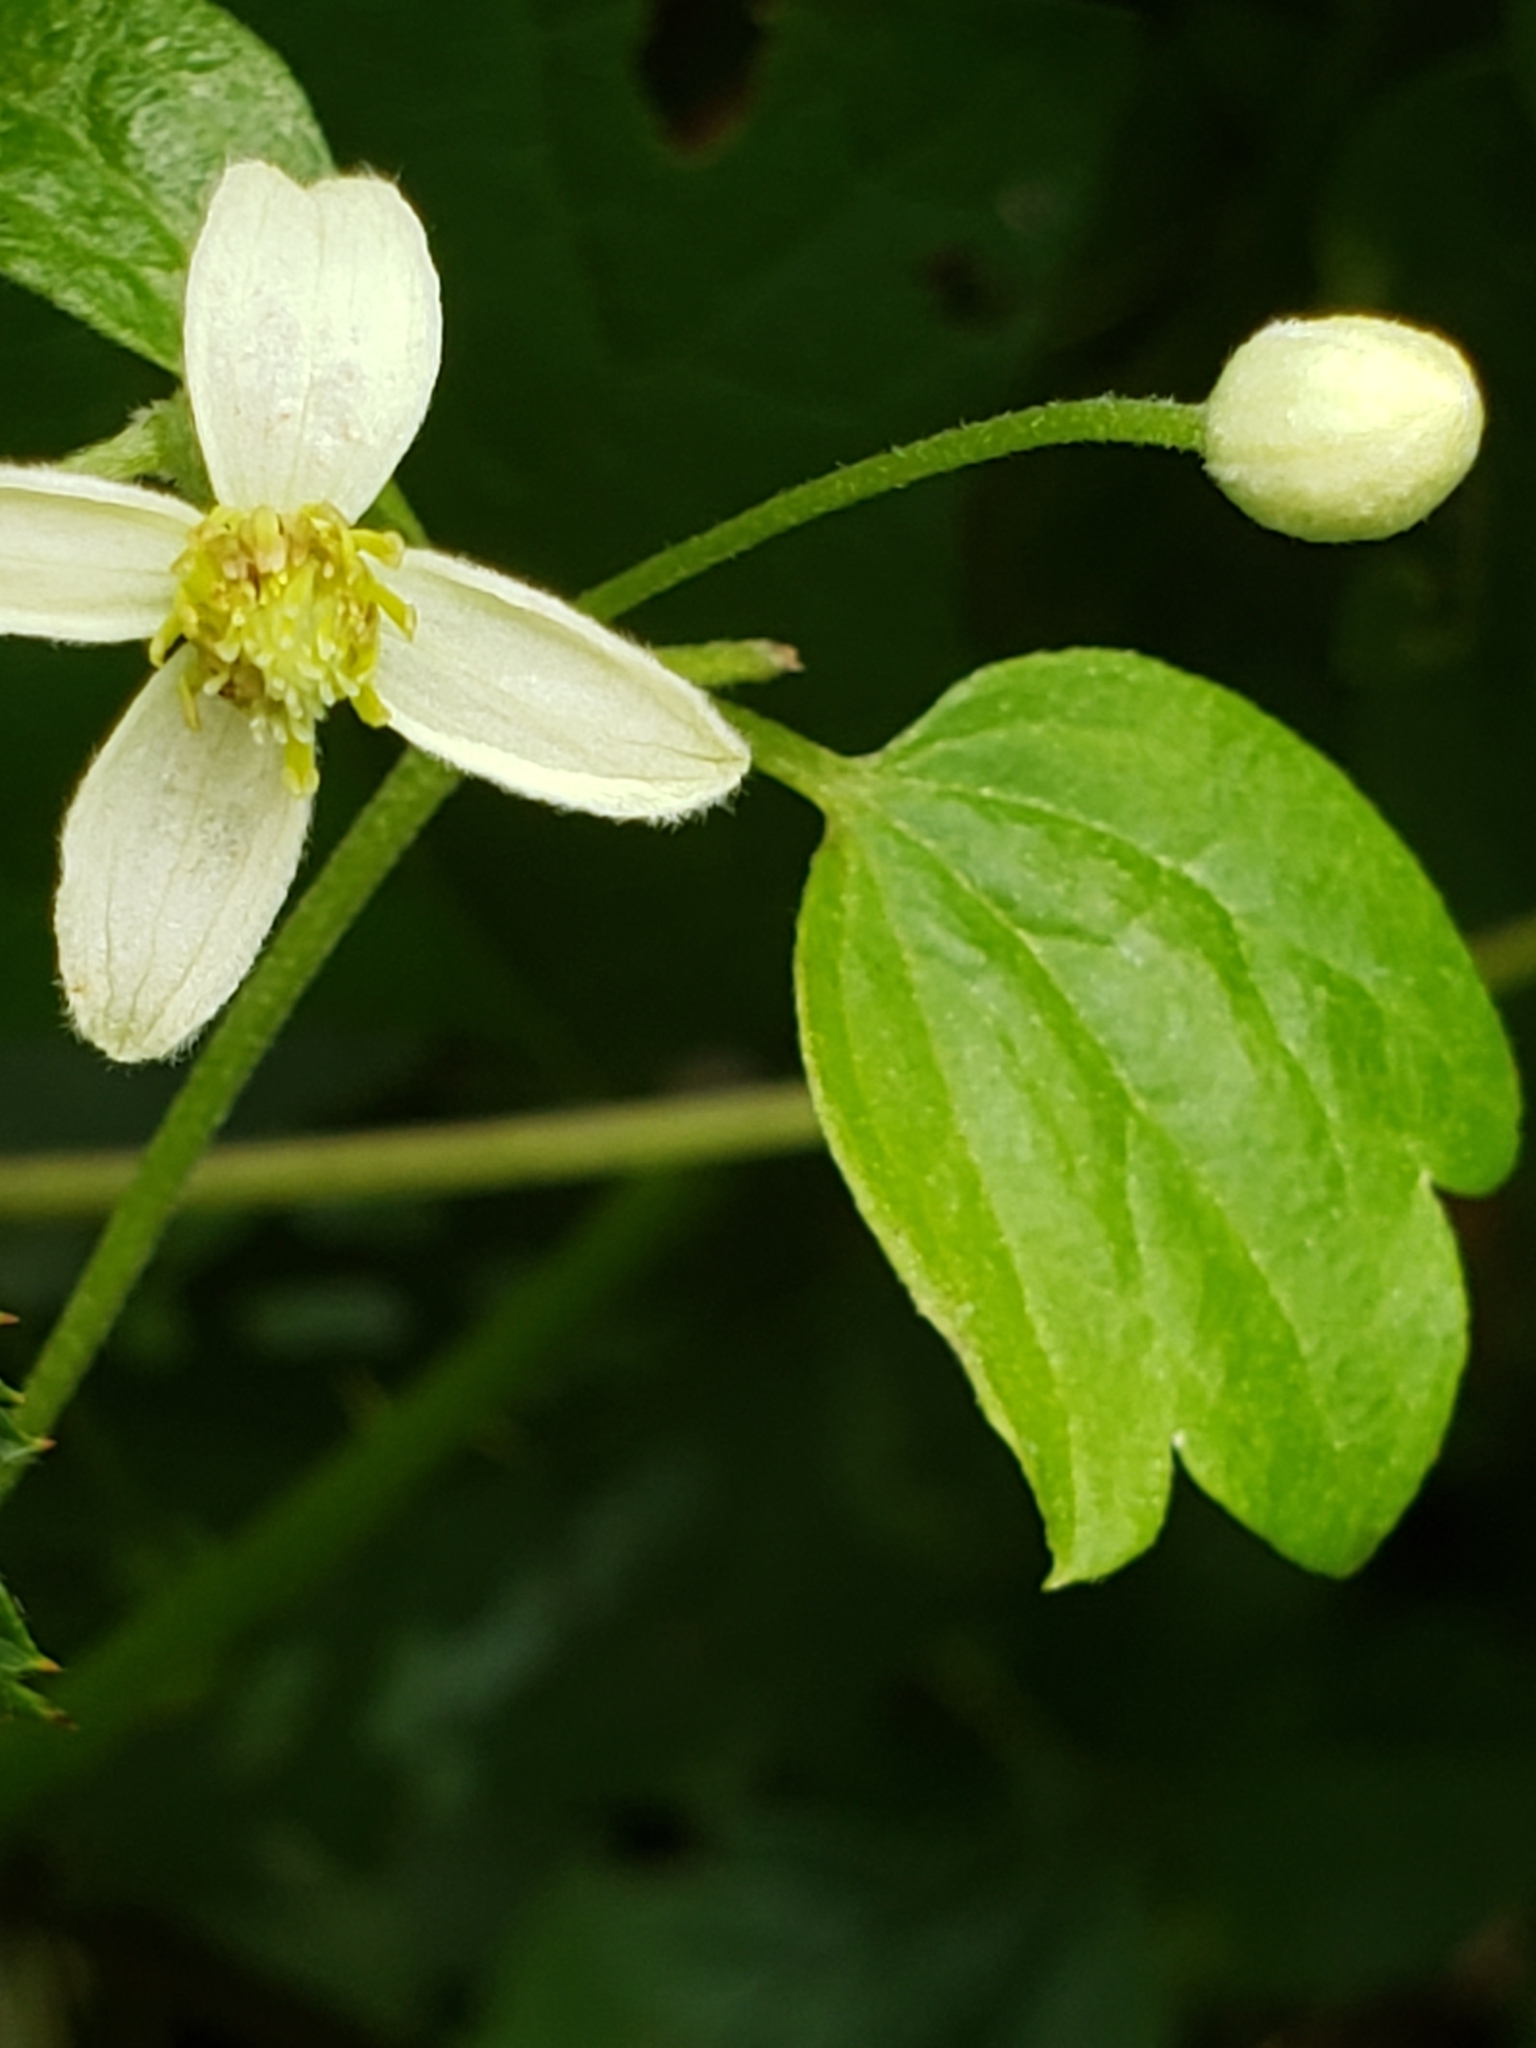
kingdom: Plantae
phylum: Tracheophyta
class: Magnoliopsida
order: Ranunculales
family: Ranunculaceae
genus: Clematis
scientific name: Clematis virginiana
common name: Virgin's-bower
